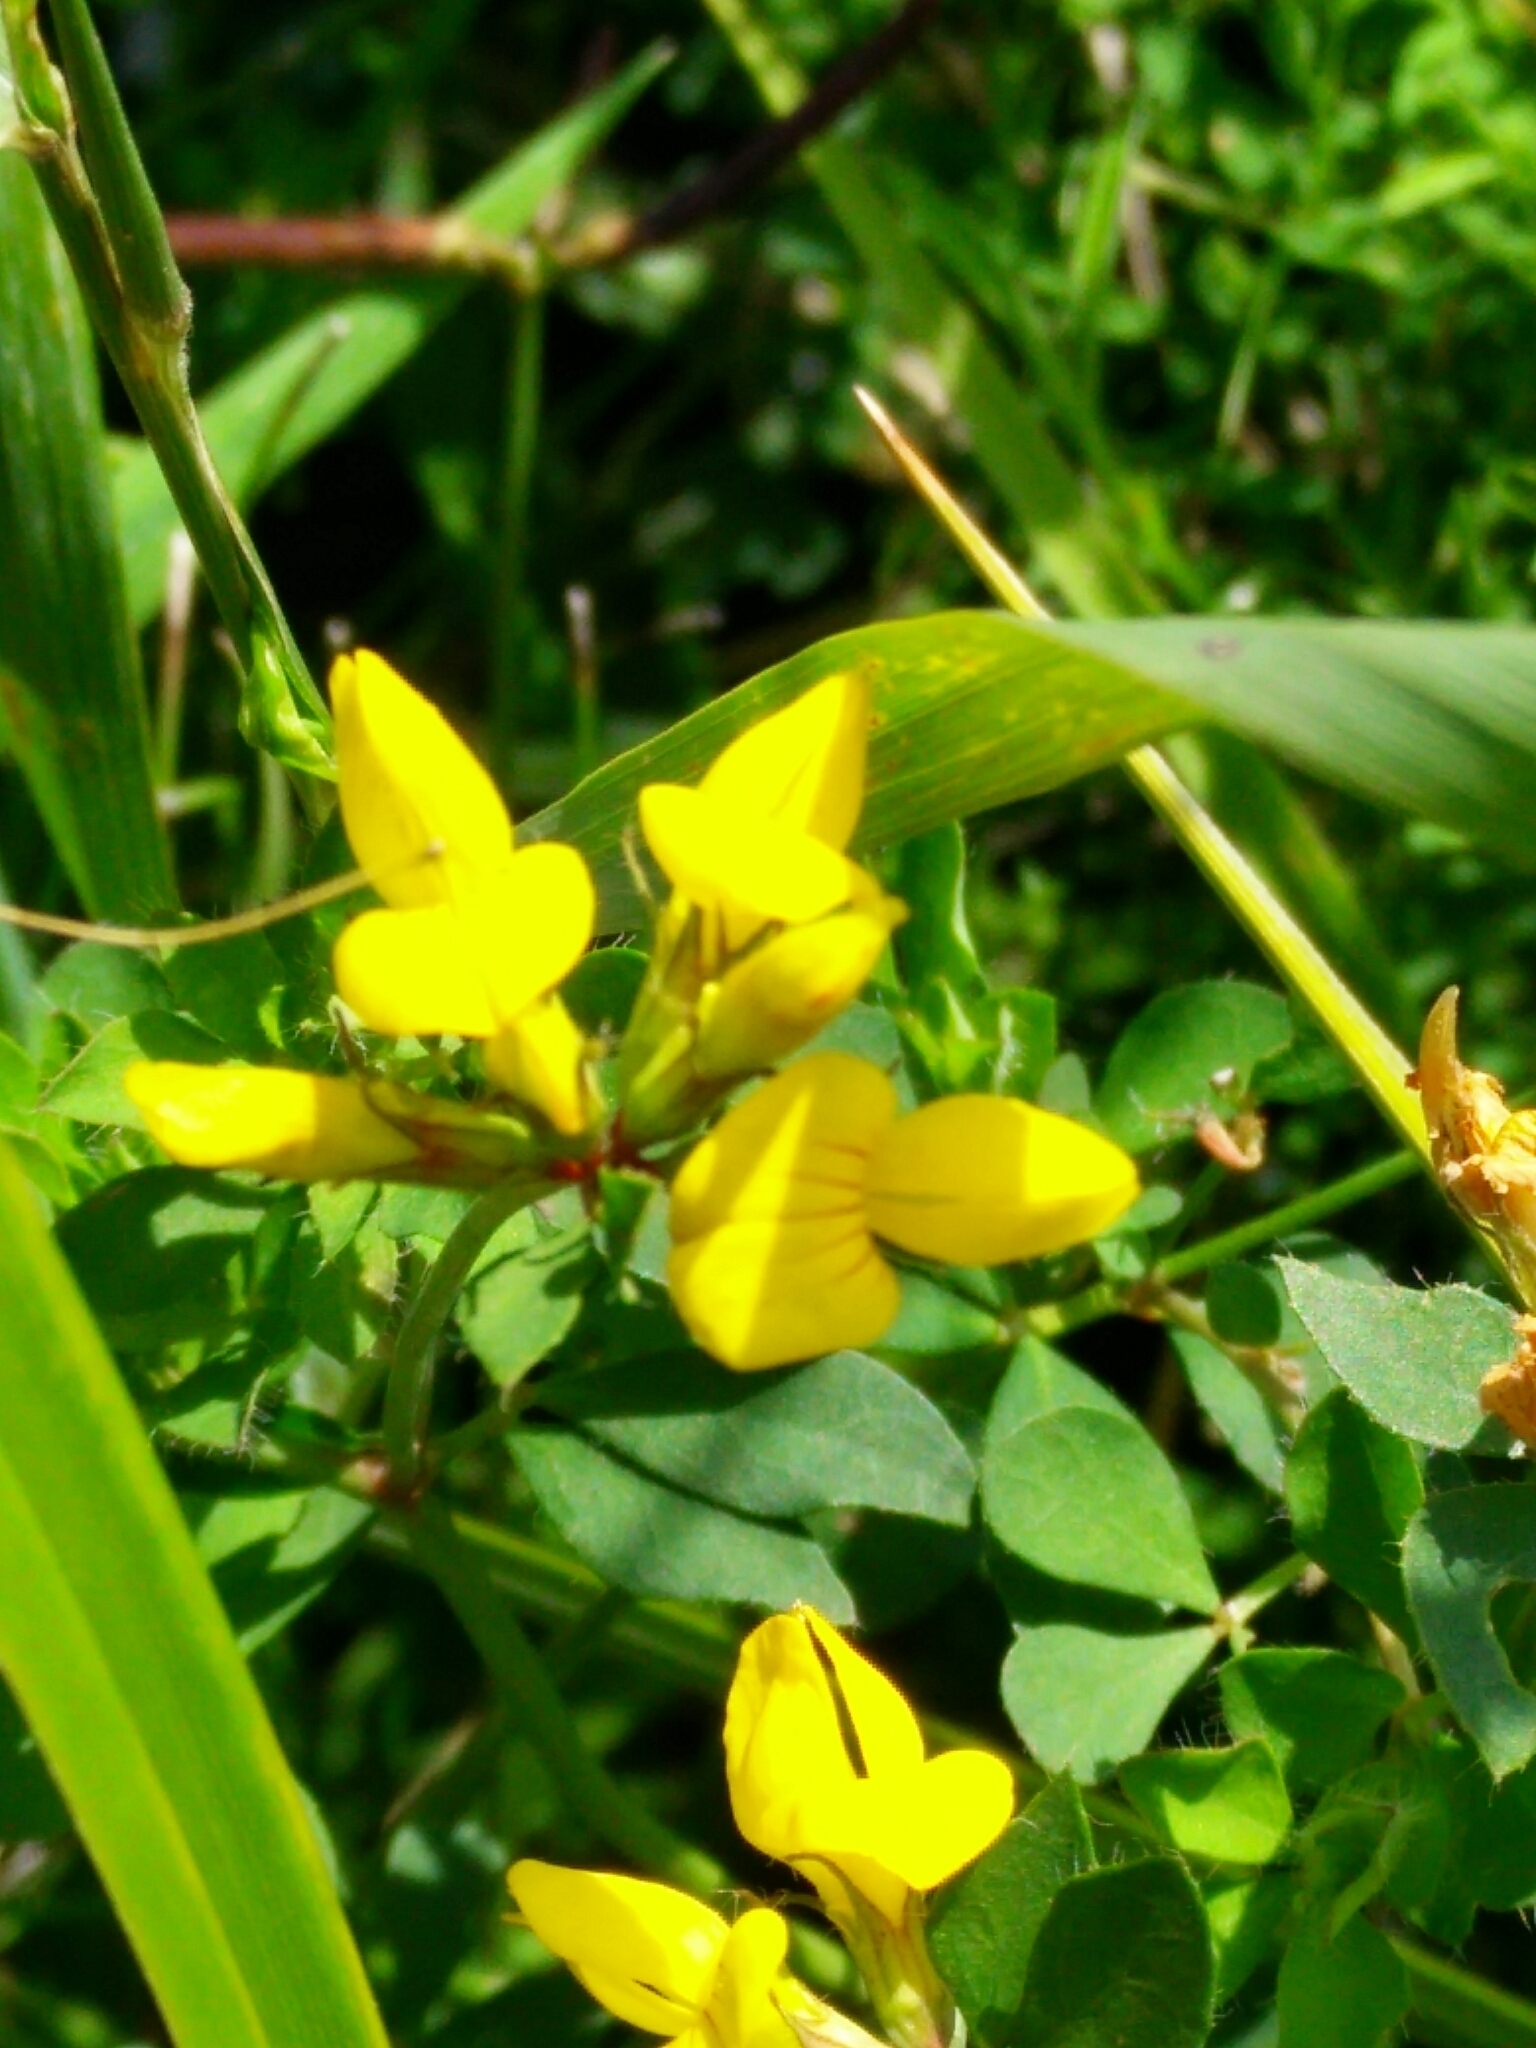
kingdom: Plantae
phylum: Tracheophyta
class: Magnoliopsida
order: Fabales
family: Fabaceae
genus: Lotus
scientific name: Lotus pedunculatus
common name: Greater birdsfoot-trefoil
